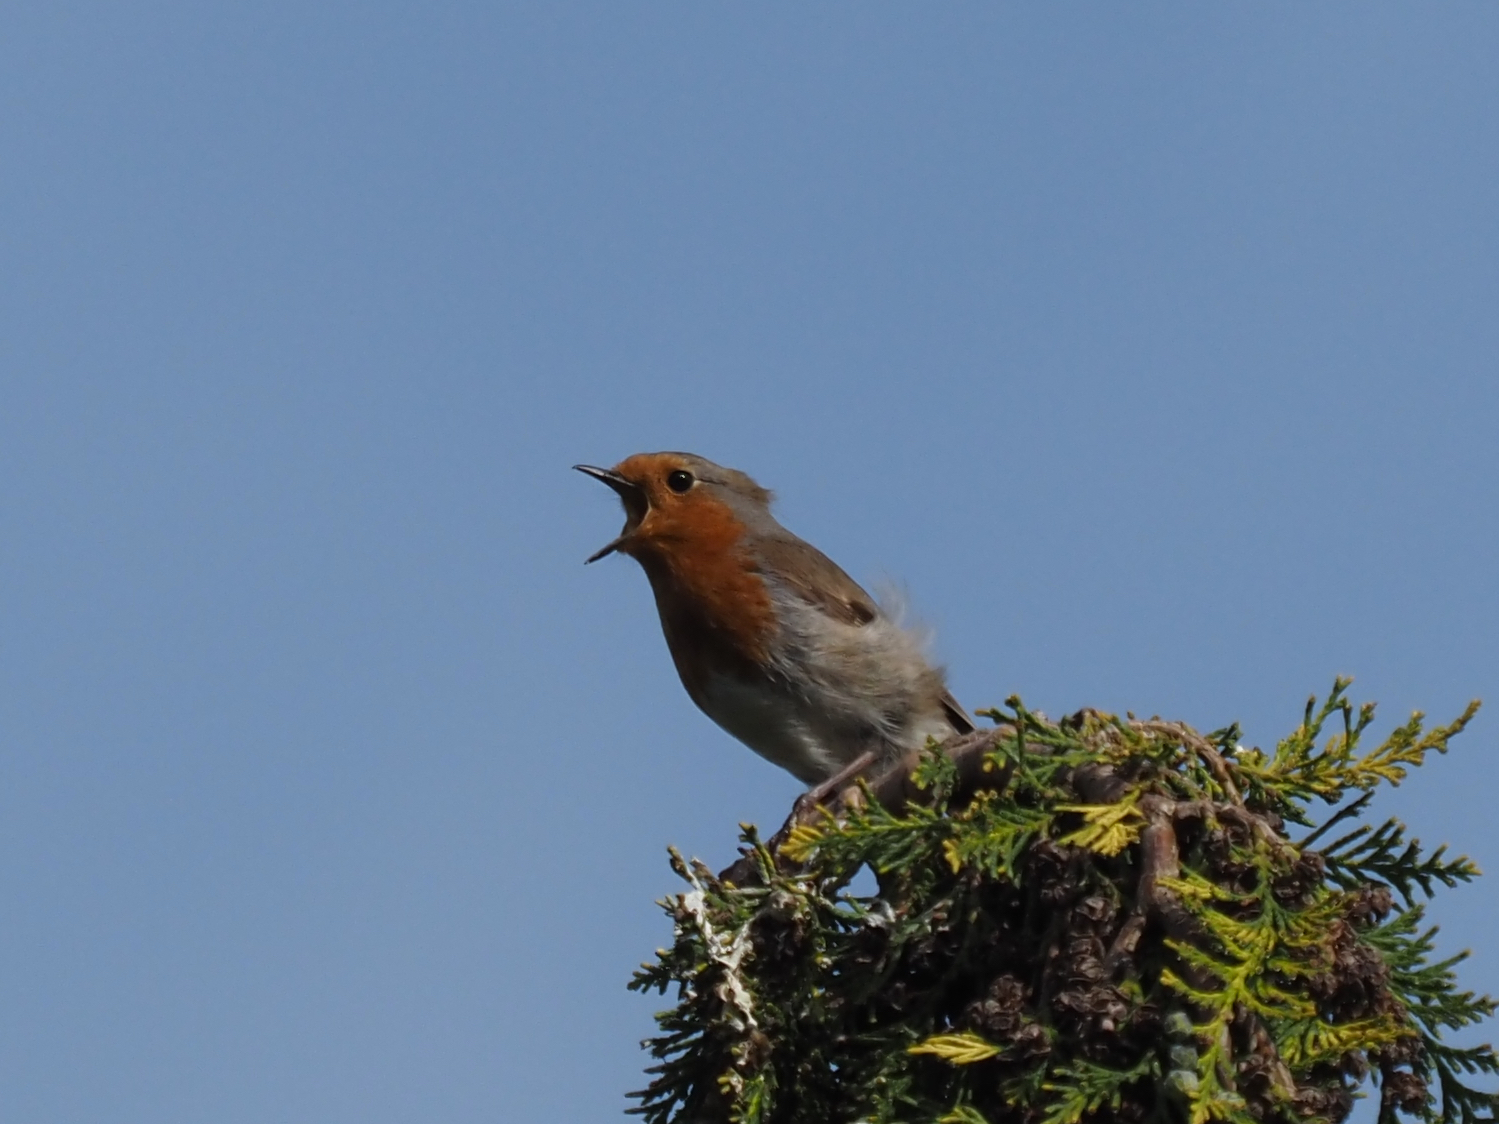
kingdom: Animalia
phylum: Chordata
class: Aves
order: Passeriformes
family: Muscicapidae
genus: Erithacus
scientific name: Erithacus rubecula
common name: European robin
